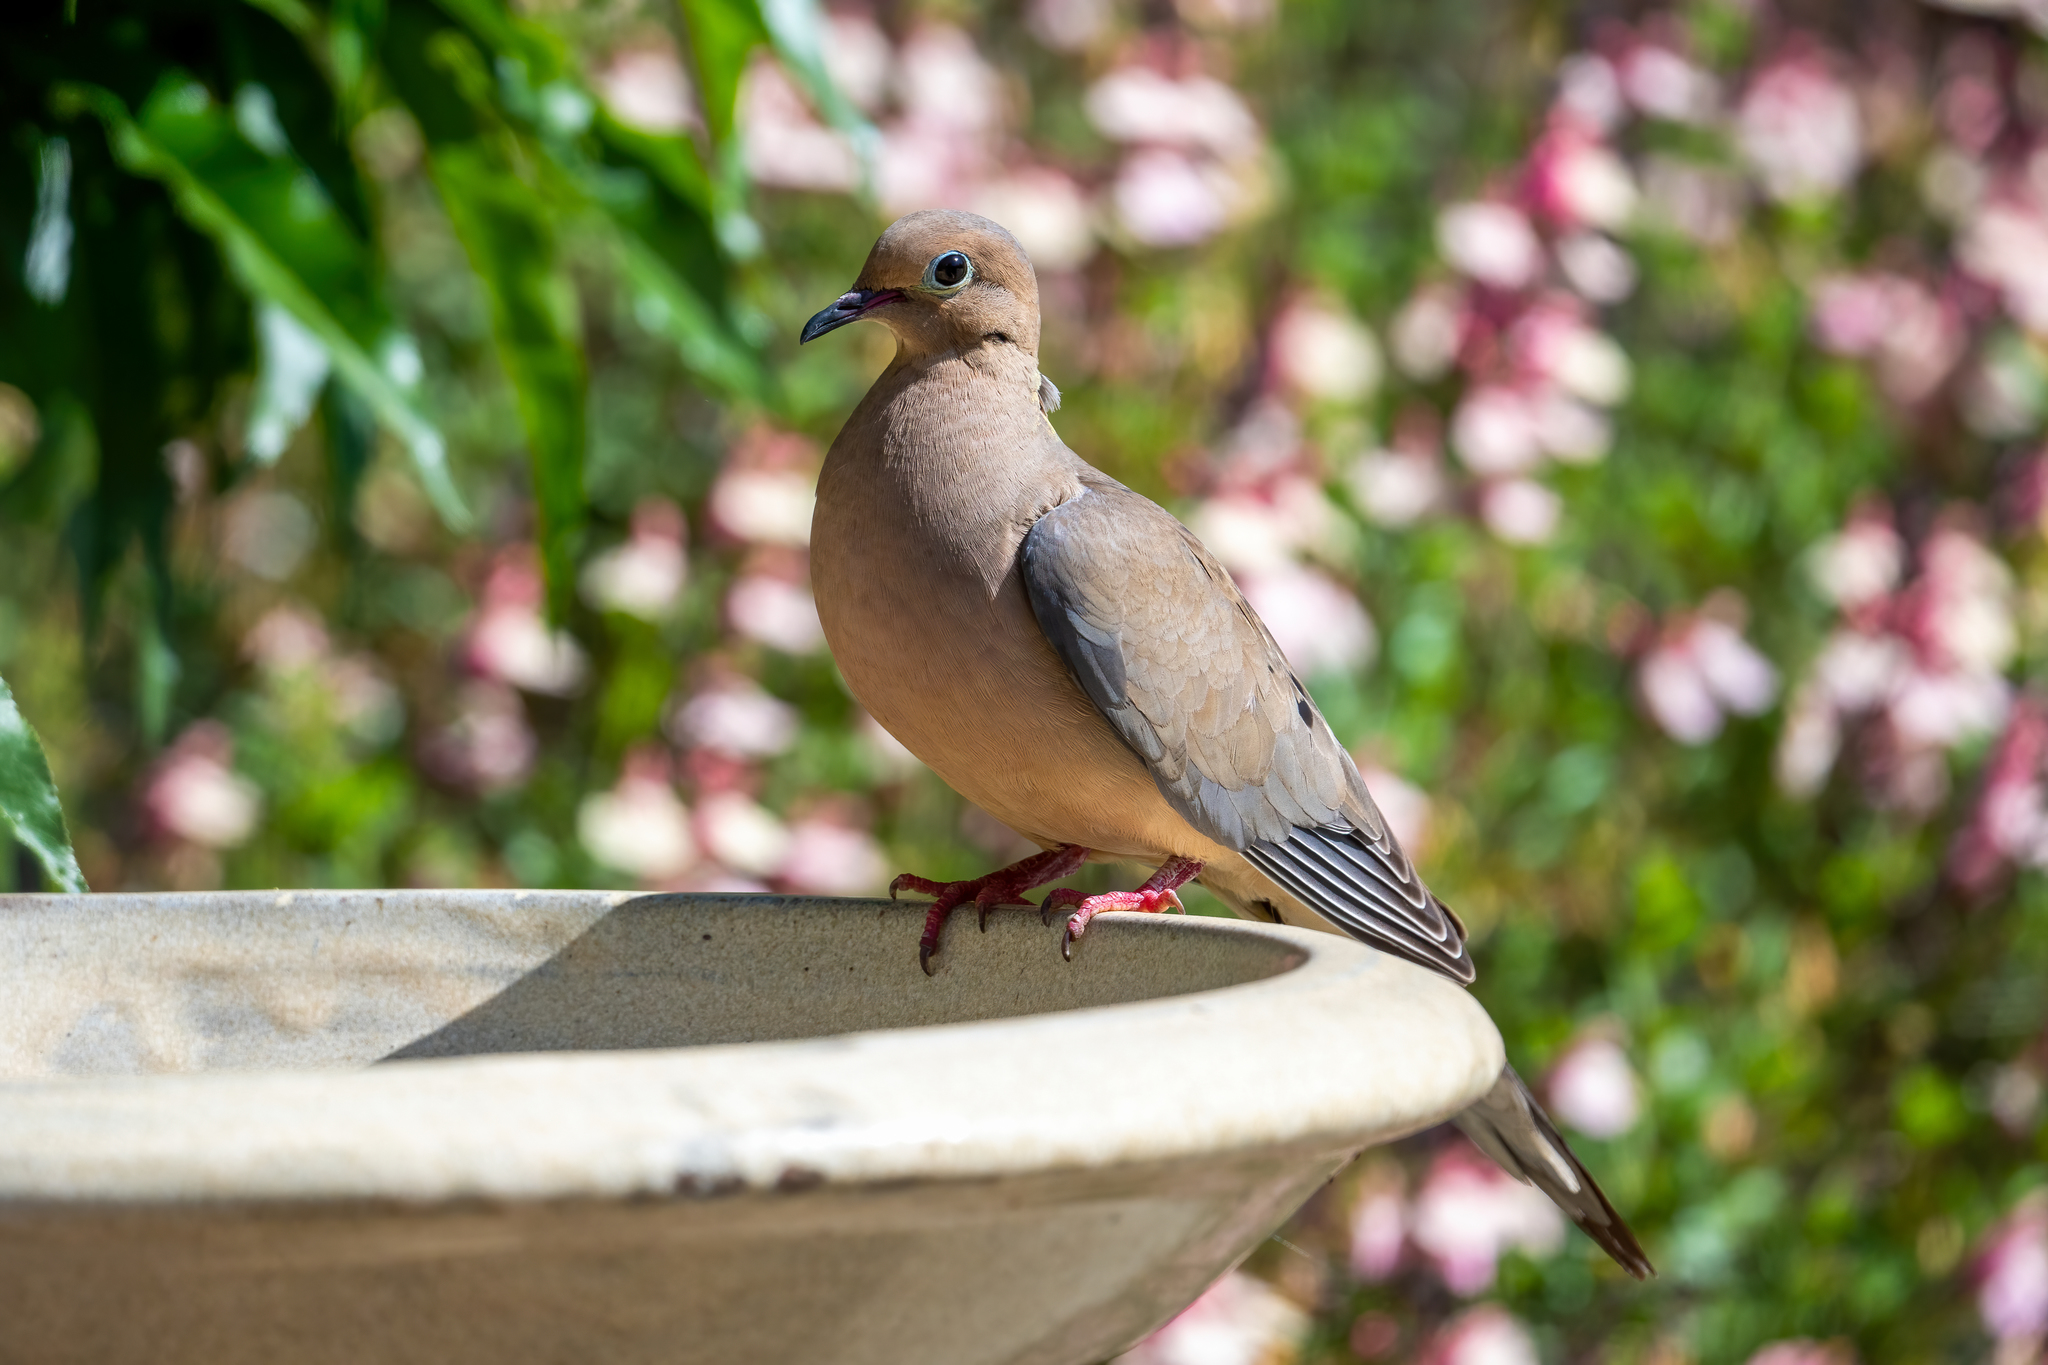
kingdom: Animalia
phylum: Chordata
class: Aves
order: Columbiformes
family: Columbidae
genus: Zenaida
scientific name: Zenaida macroura
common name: Mourning dove
